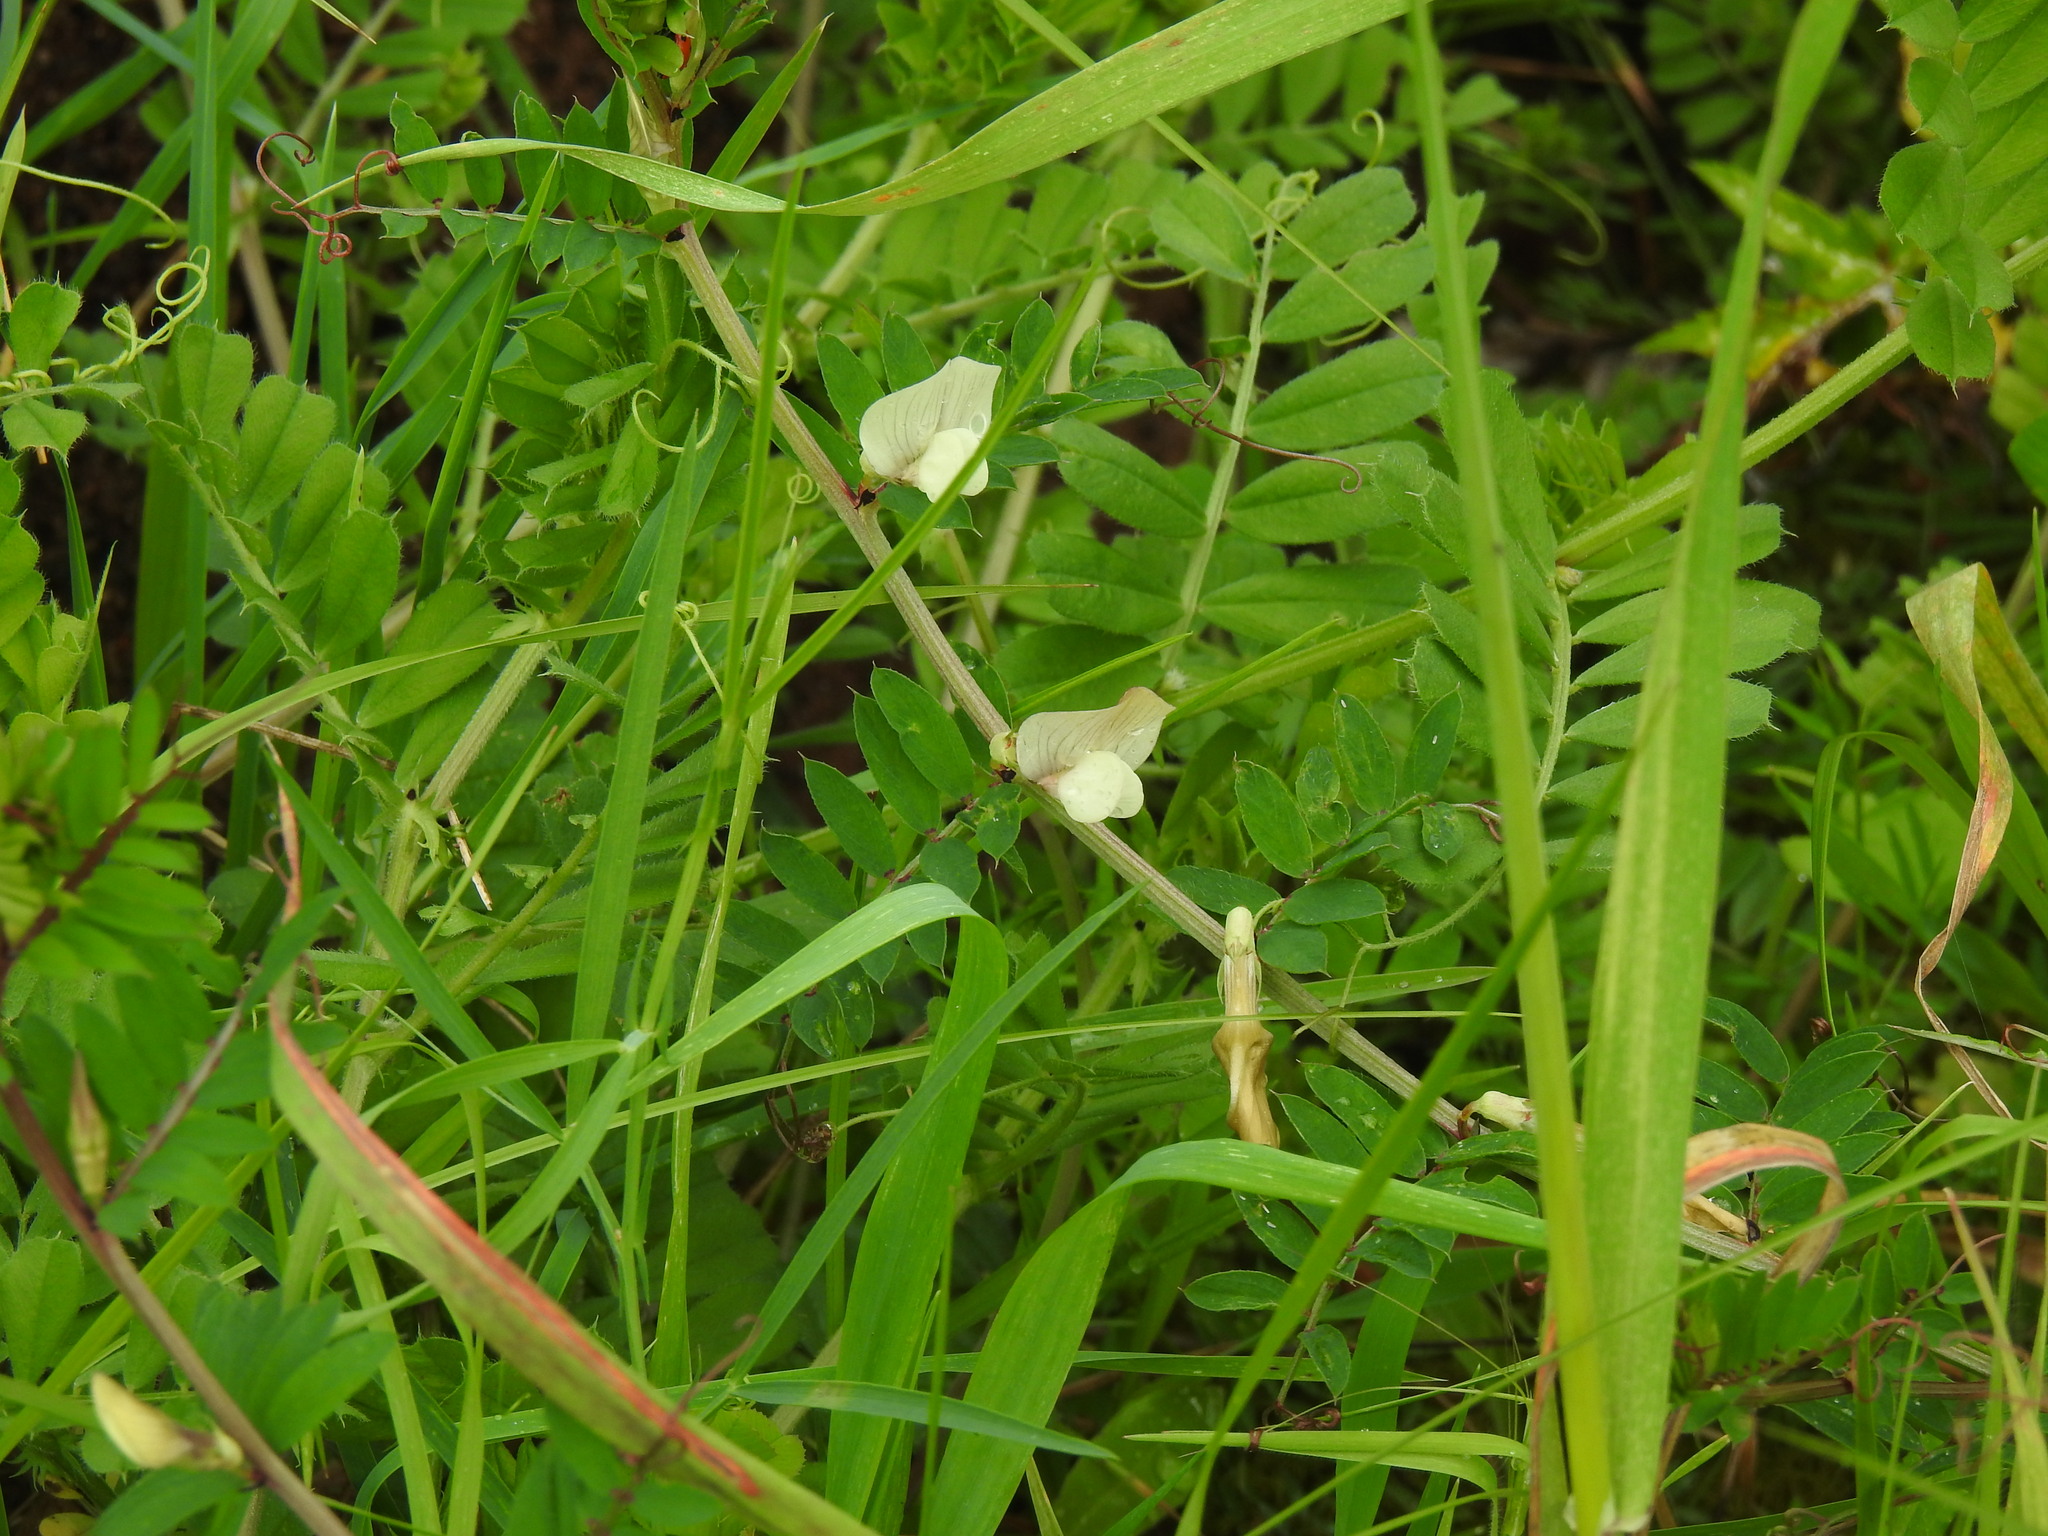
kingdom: Plantae
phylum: Tracheophyta
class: Magnoliopsida
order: Fabales
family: Fabaceae
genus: Vicia
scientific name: Vicia lutea
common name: Smooth yellow vetch
